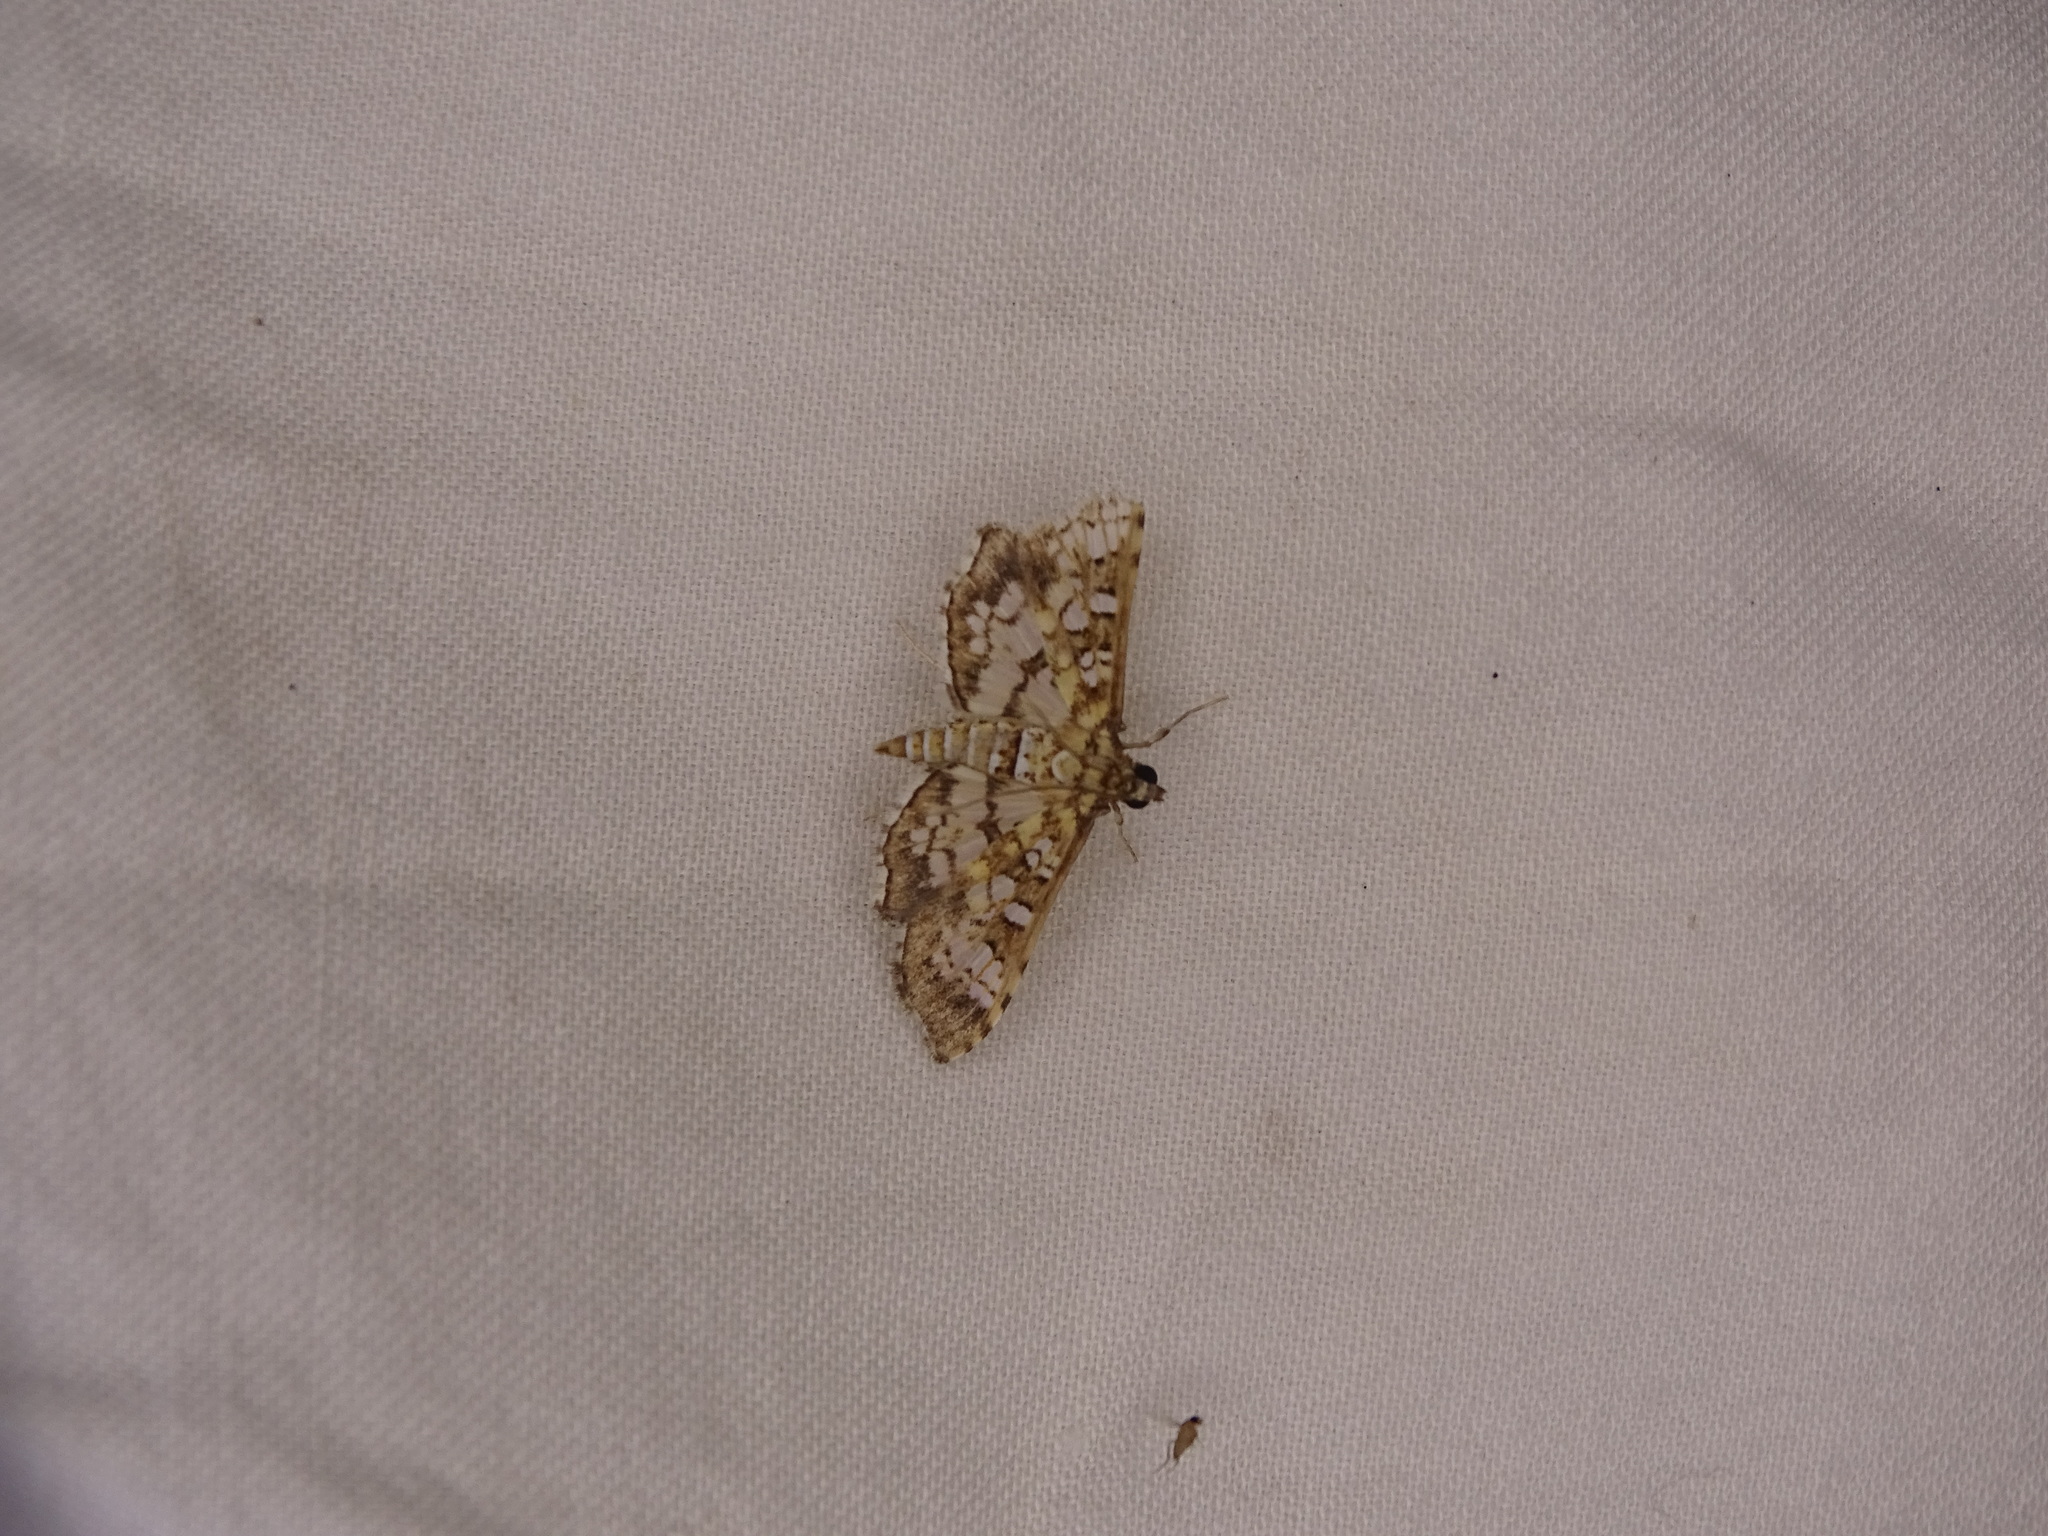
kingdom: Animalia
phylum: Arthropoda
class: Insecta
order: Lepidoptera
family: Crambidae
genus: Samea
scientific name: Samea ecclesialis
